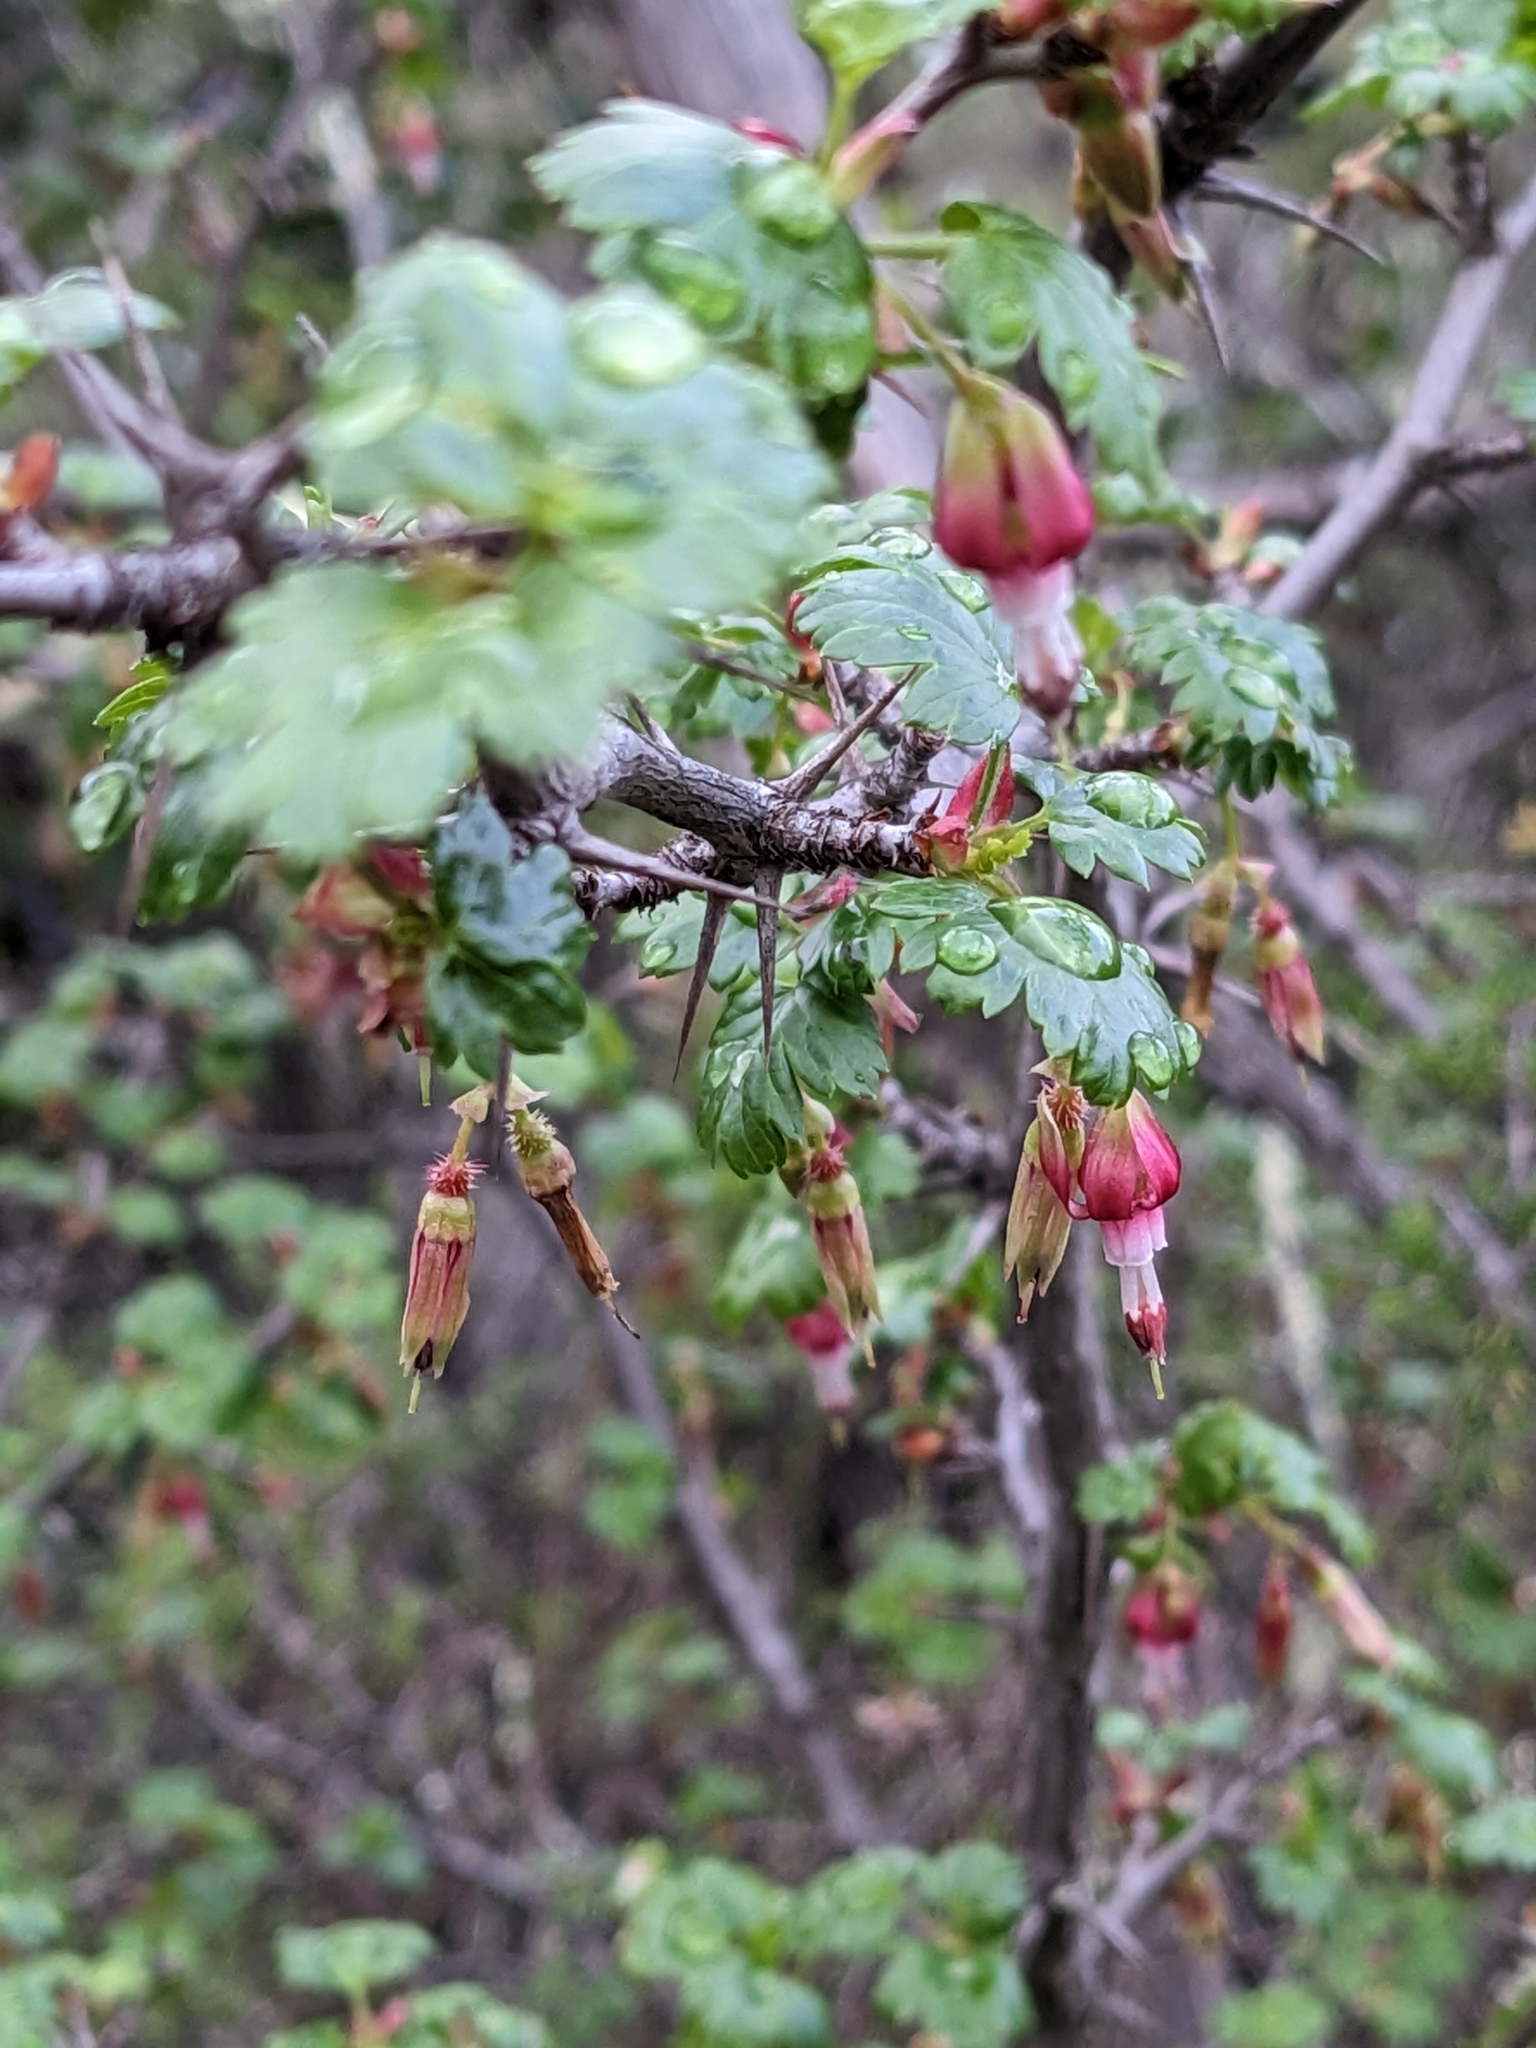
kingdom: Plantae
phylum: Tracheophyta
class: Magnoliopsida
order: Saxifragales
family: Grossulariaceae
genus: Ribes
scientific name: Ribes californicum
